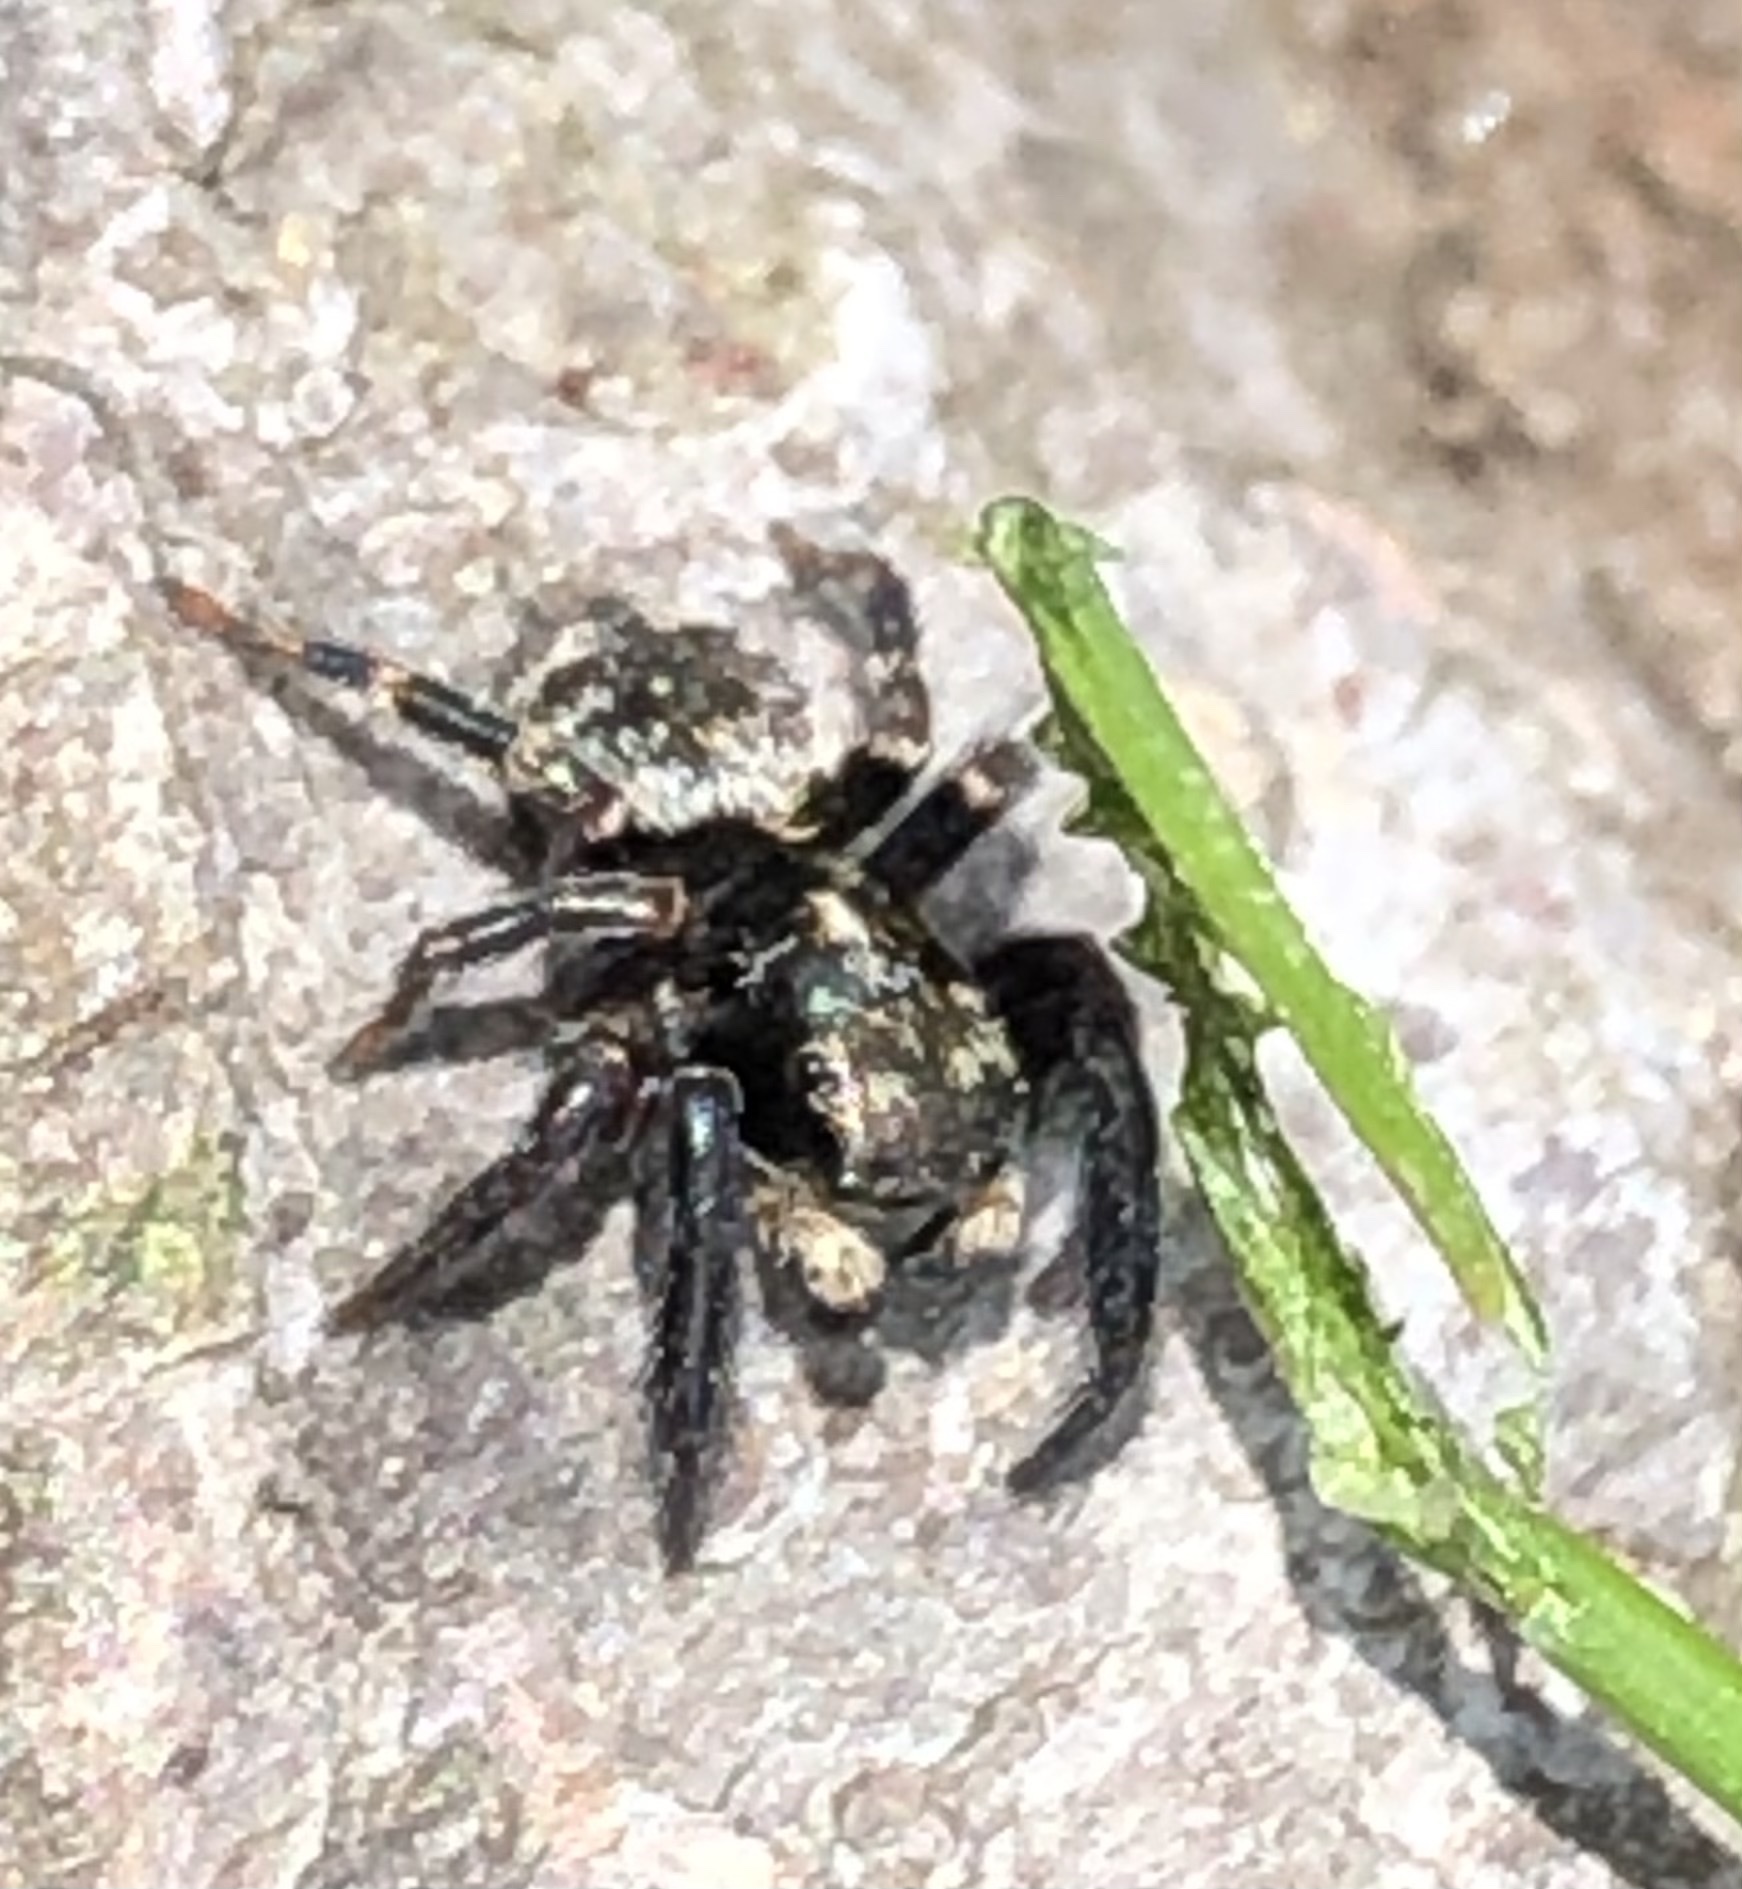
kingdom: Animalia
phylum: Arthropoda
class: Arachnida
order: Araneae
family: Salticidae
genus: Pseudeuophrys
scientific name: Pseudeuophrys erratica
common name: Jumping spider
